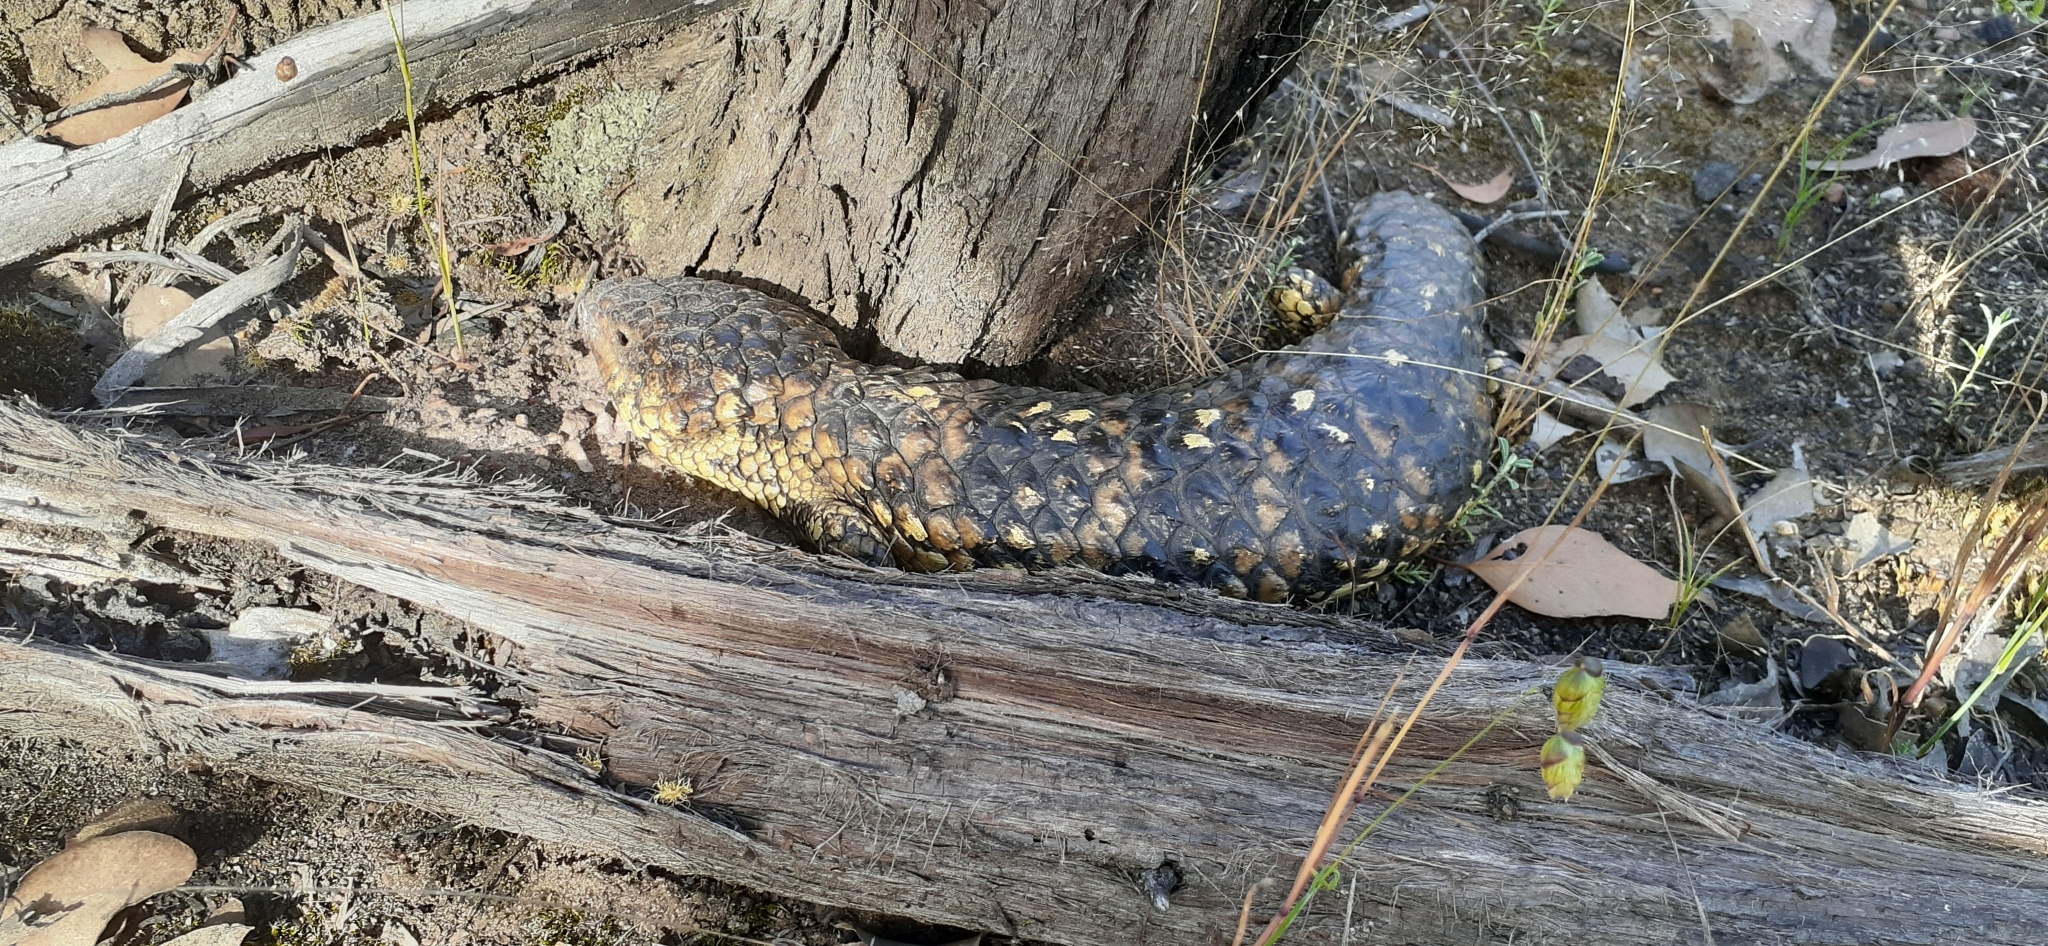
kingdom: Animalia
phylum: Chordata
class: Squamata
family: Scincidae
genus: Tiliqua
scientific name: Tiliqua rugosa
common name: Pinecone lizard
